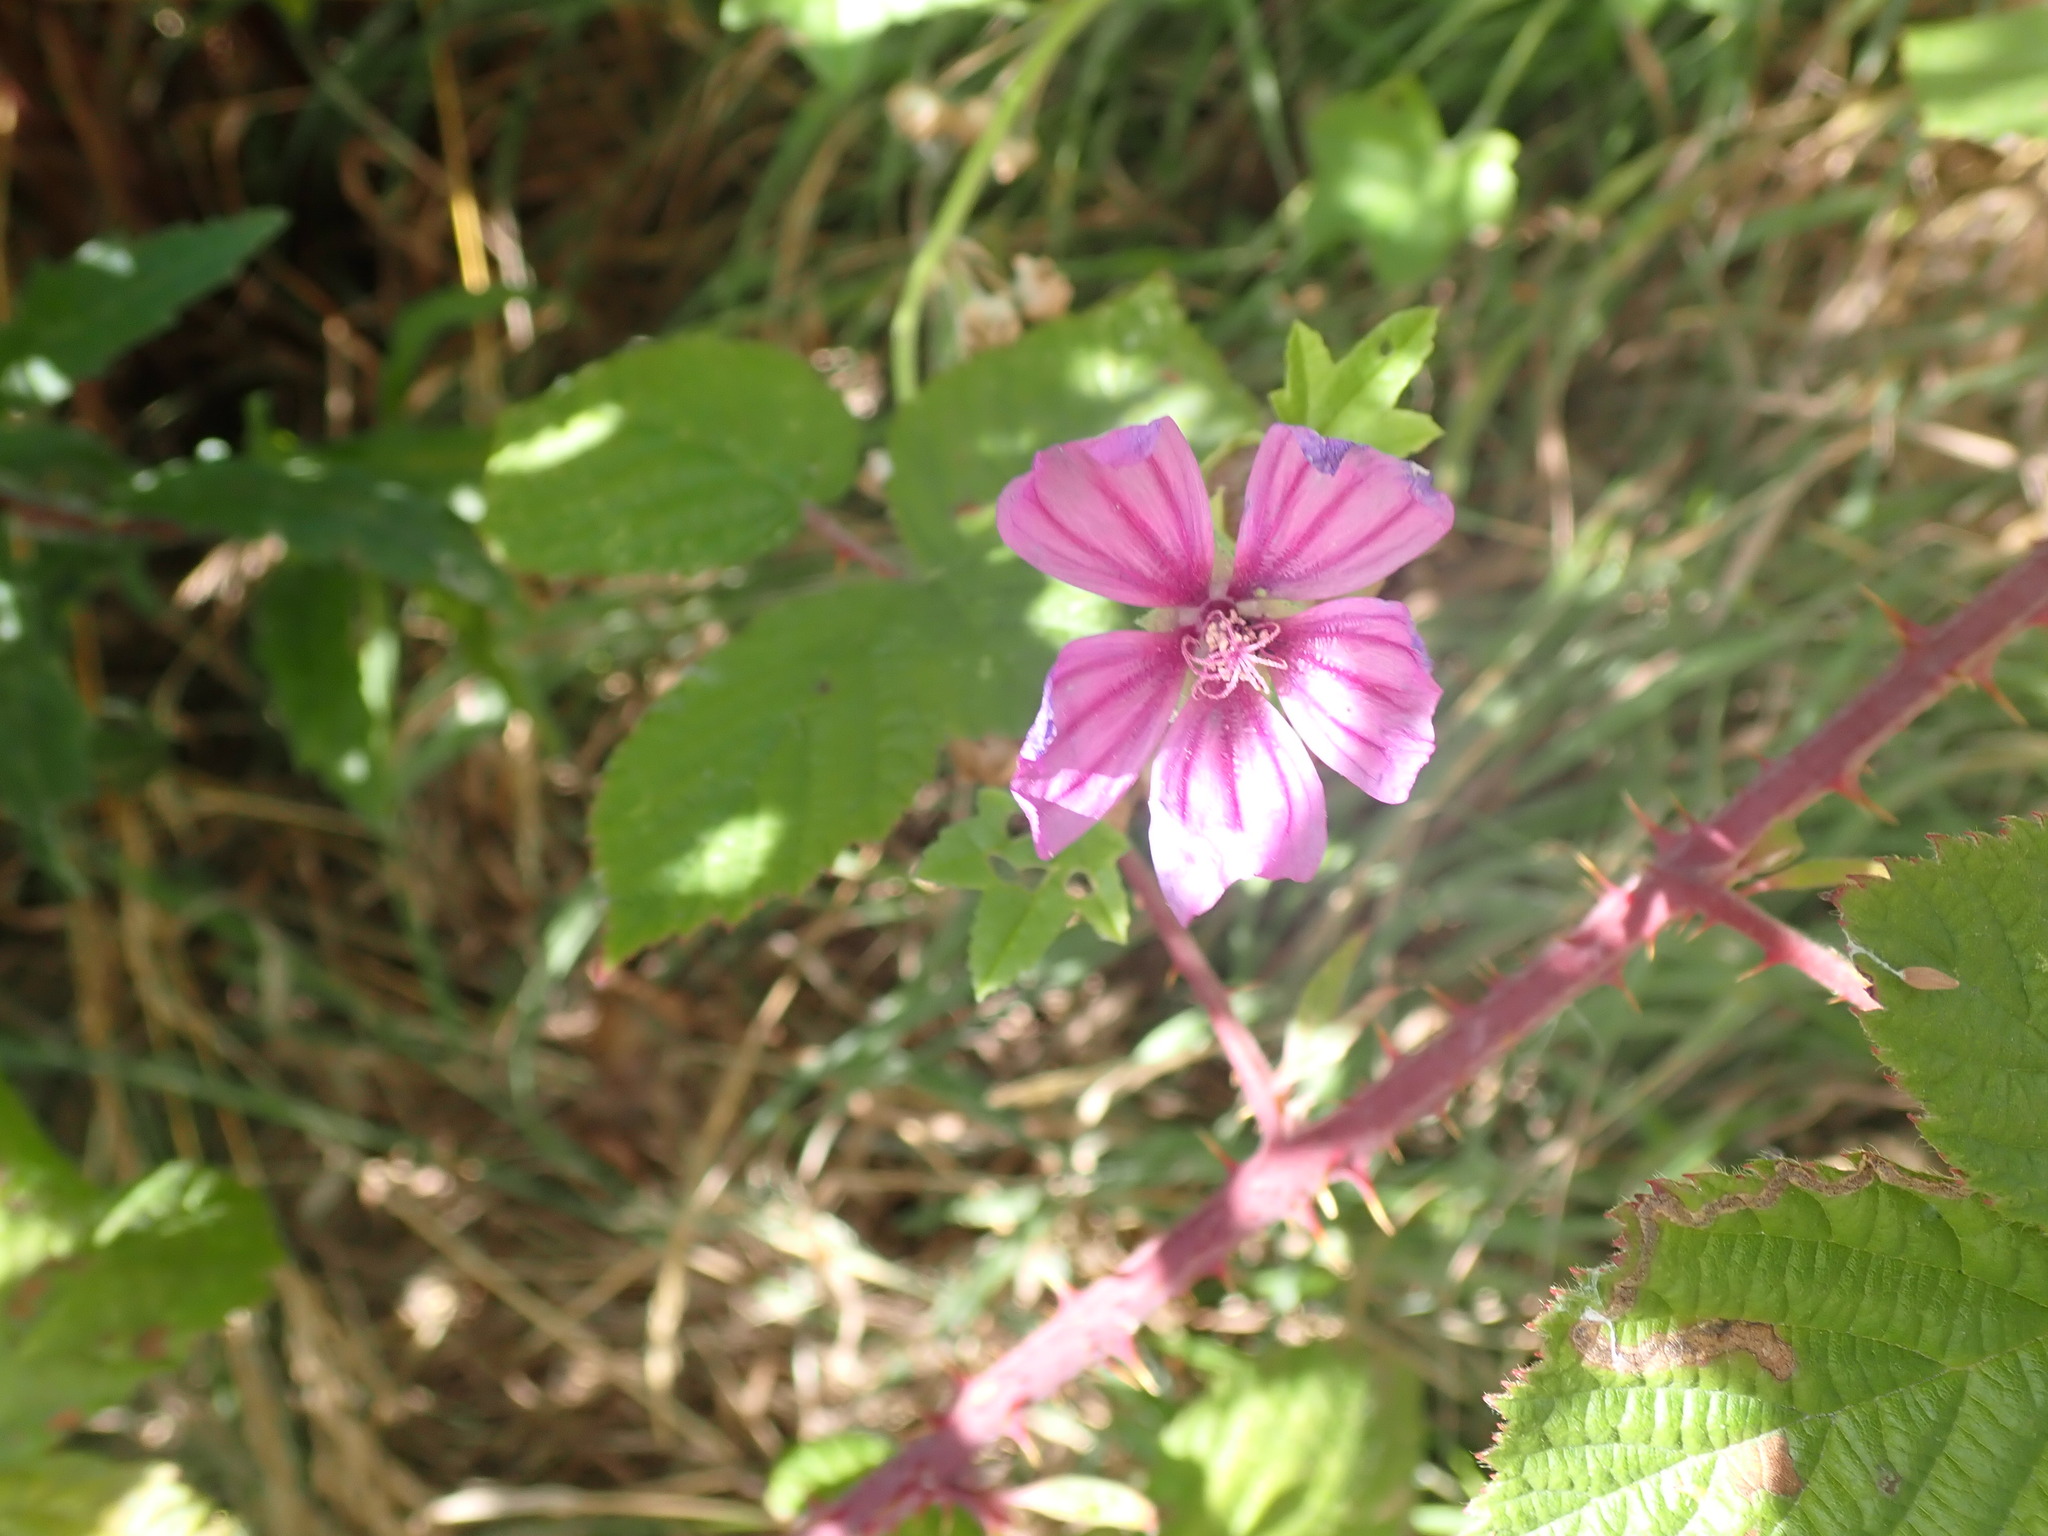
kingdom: Plantae
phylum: Tracheophyta
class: Magnoliopsida
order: Malvales
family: Malvaceae
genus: Malva
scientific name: Malva sylvestris
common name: Common mallow
